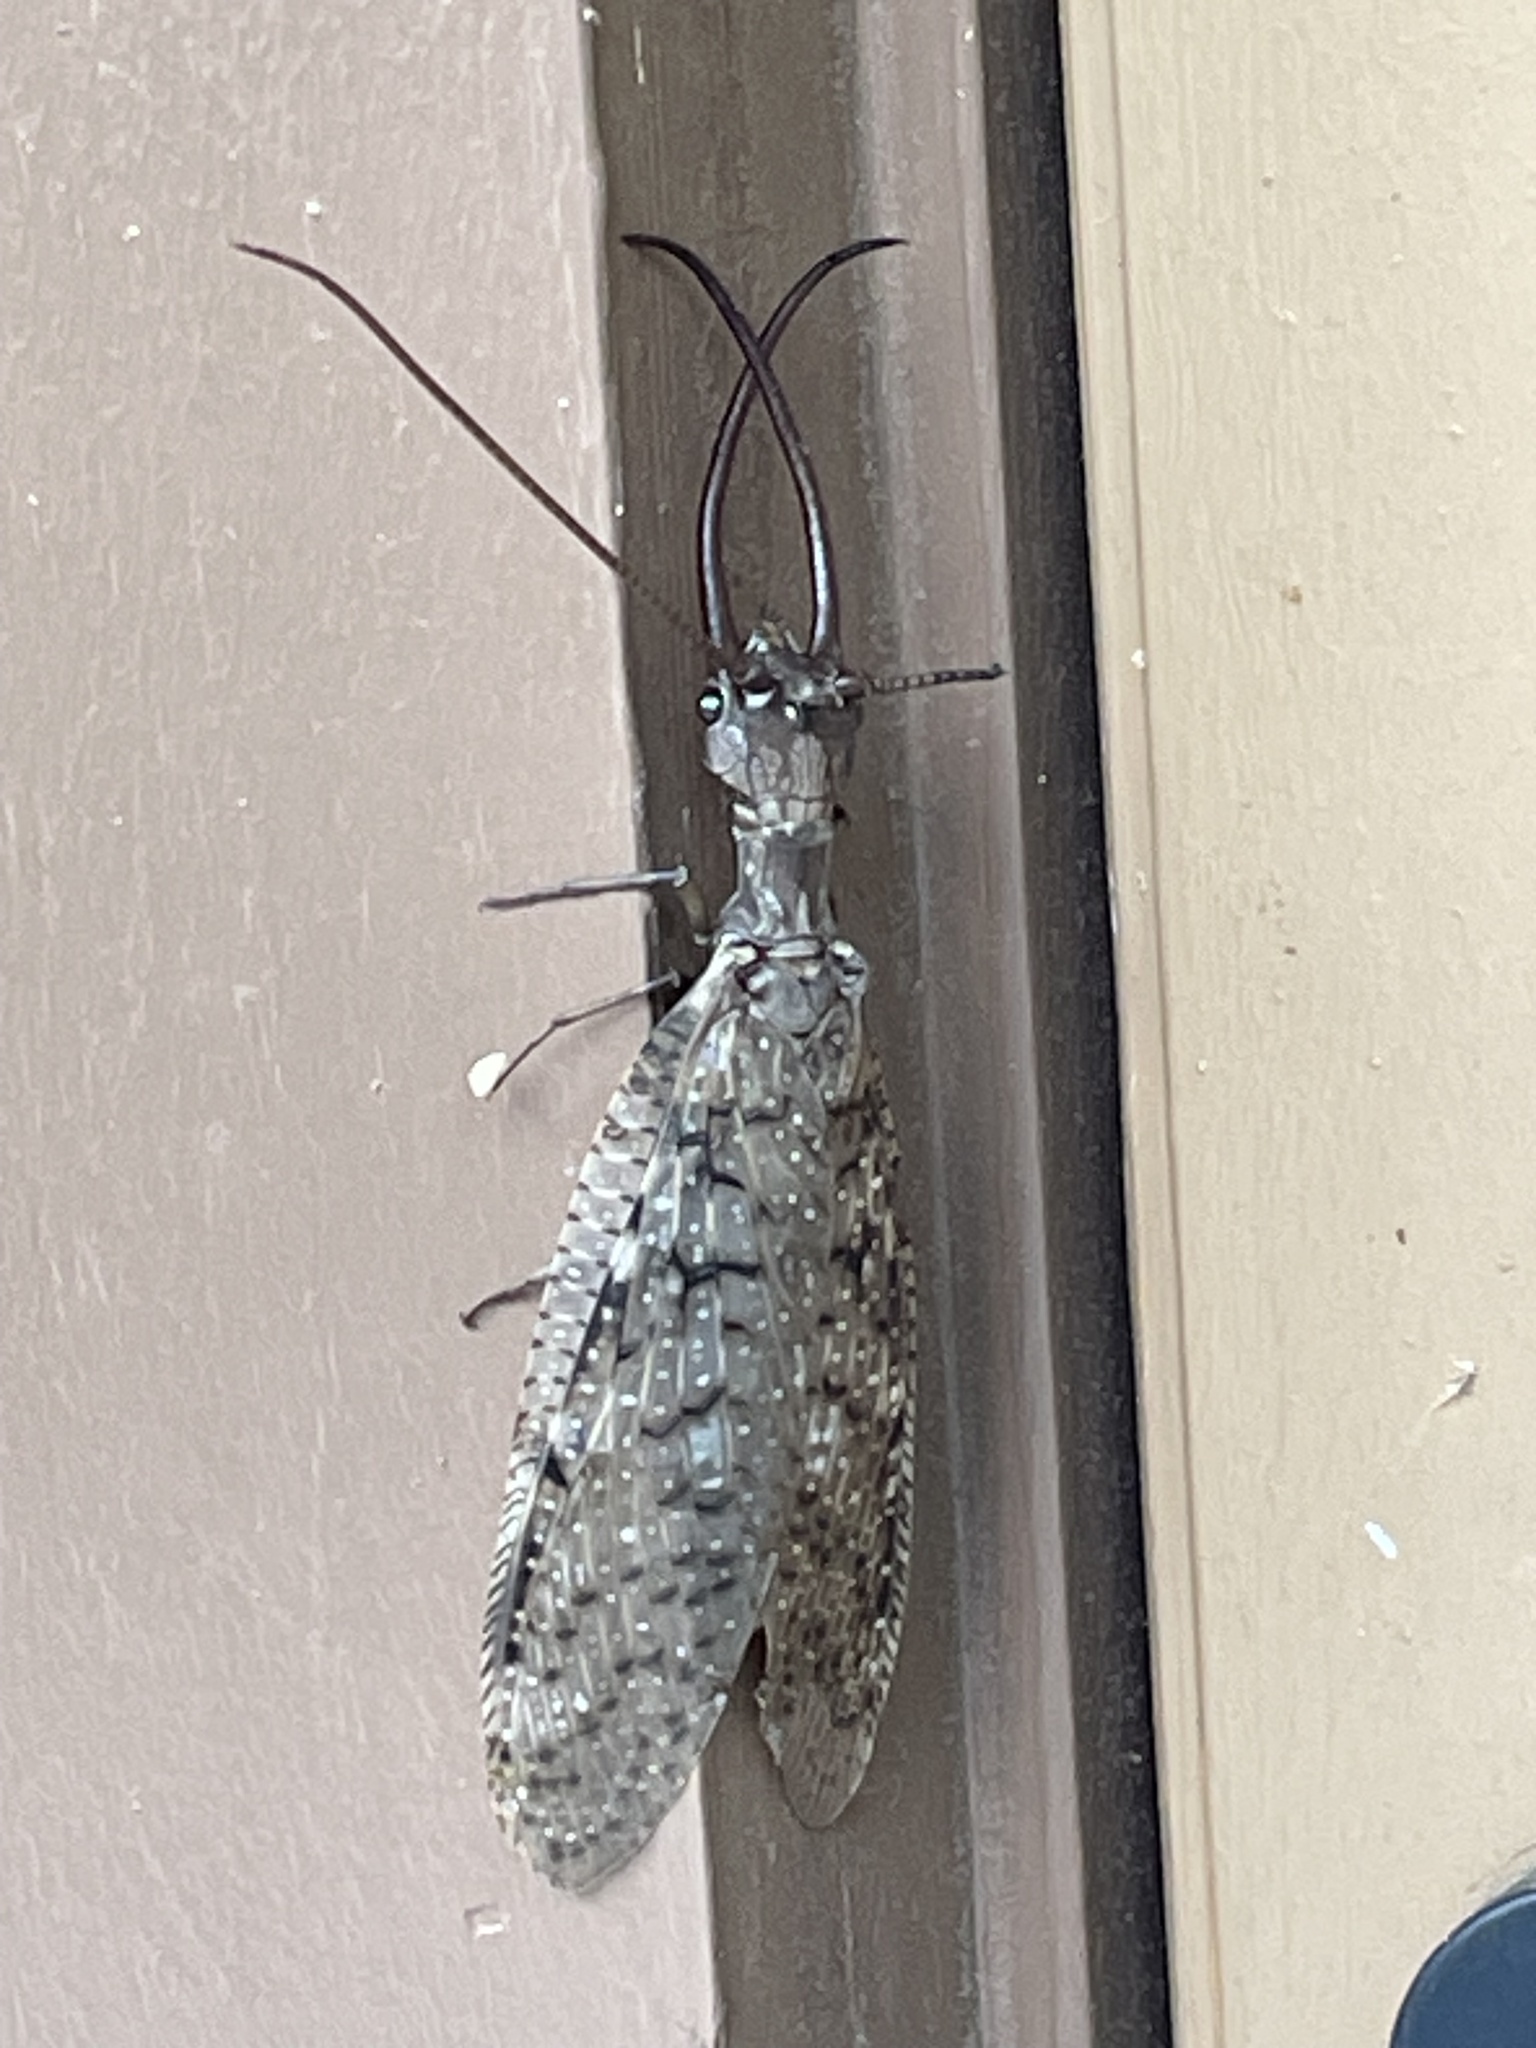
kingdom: Animalia
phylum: Arthropoda
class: Insecta
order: Megaloptera
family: Corydalidae
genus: Corydalus
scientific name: Corydalus cornutus
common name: Dobsonfly
